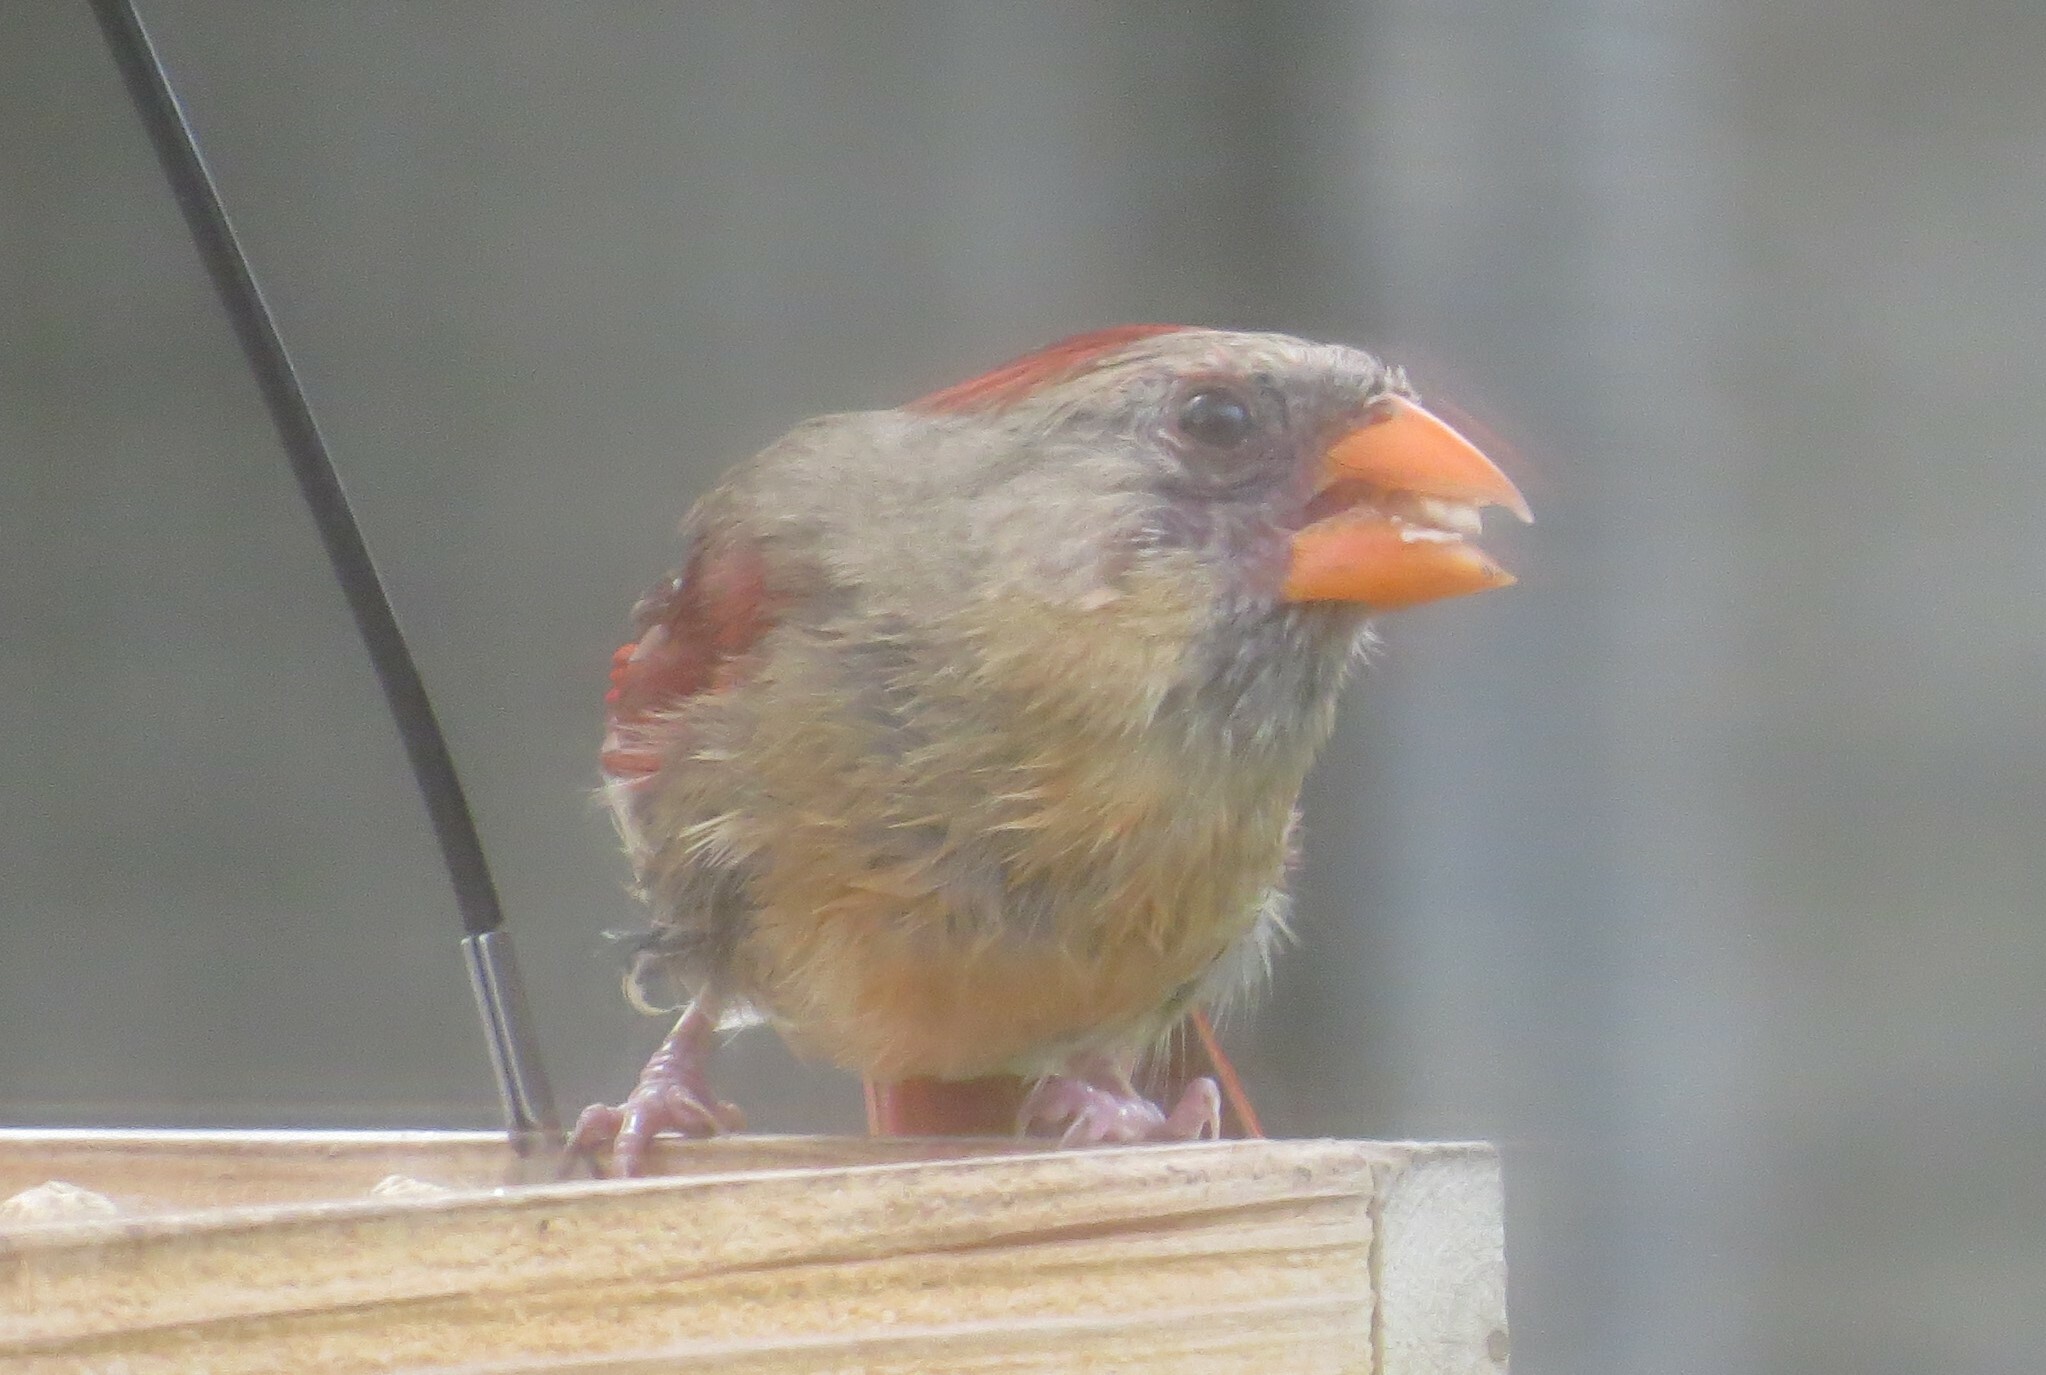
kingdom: Animalia
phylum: Chordata
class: Aves
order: Passeriformes
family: Cardinalidae
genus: Cardinalis
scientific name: Cardinalis cardinalis
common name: Northern cardinal
